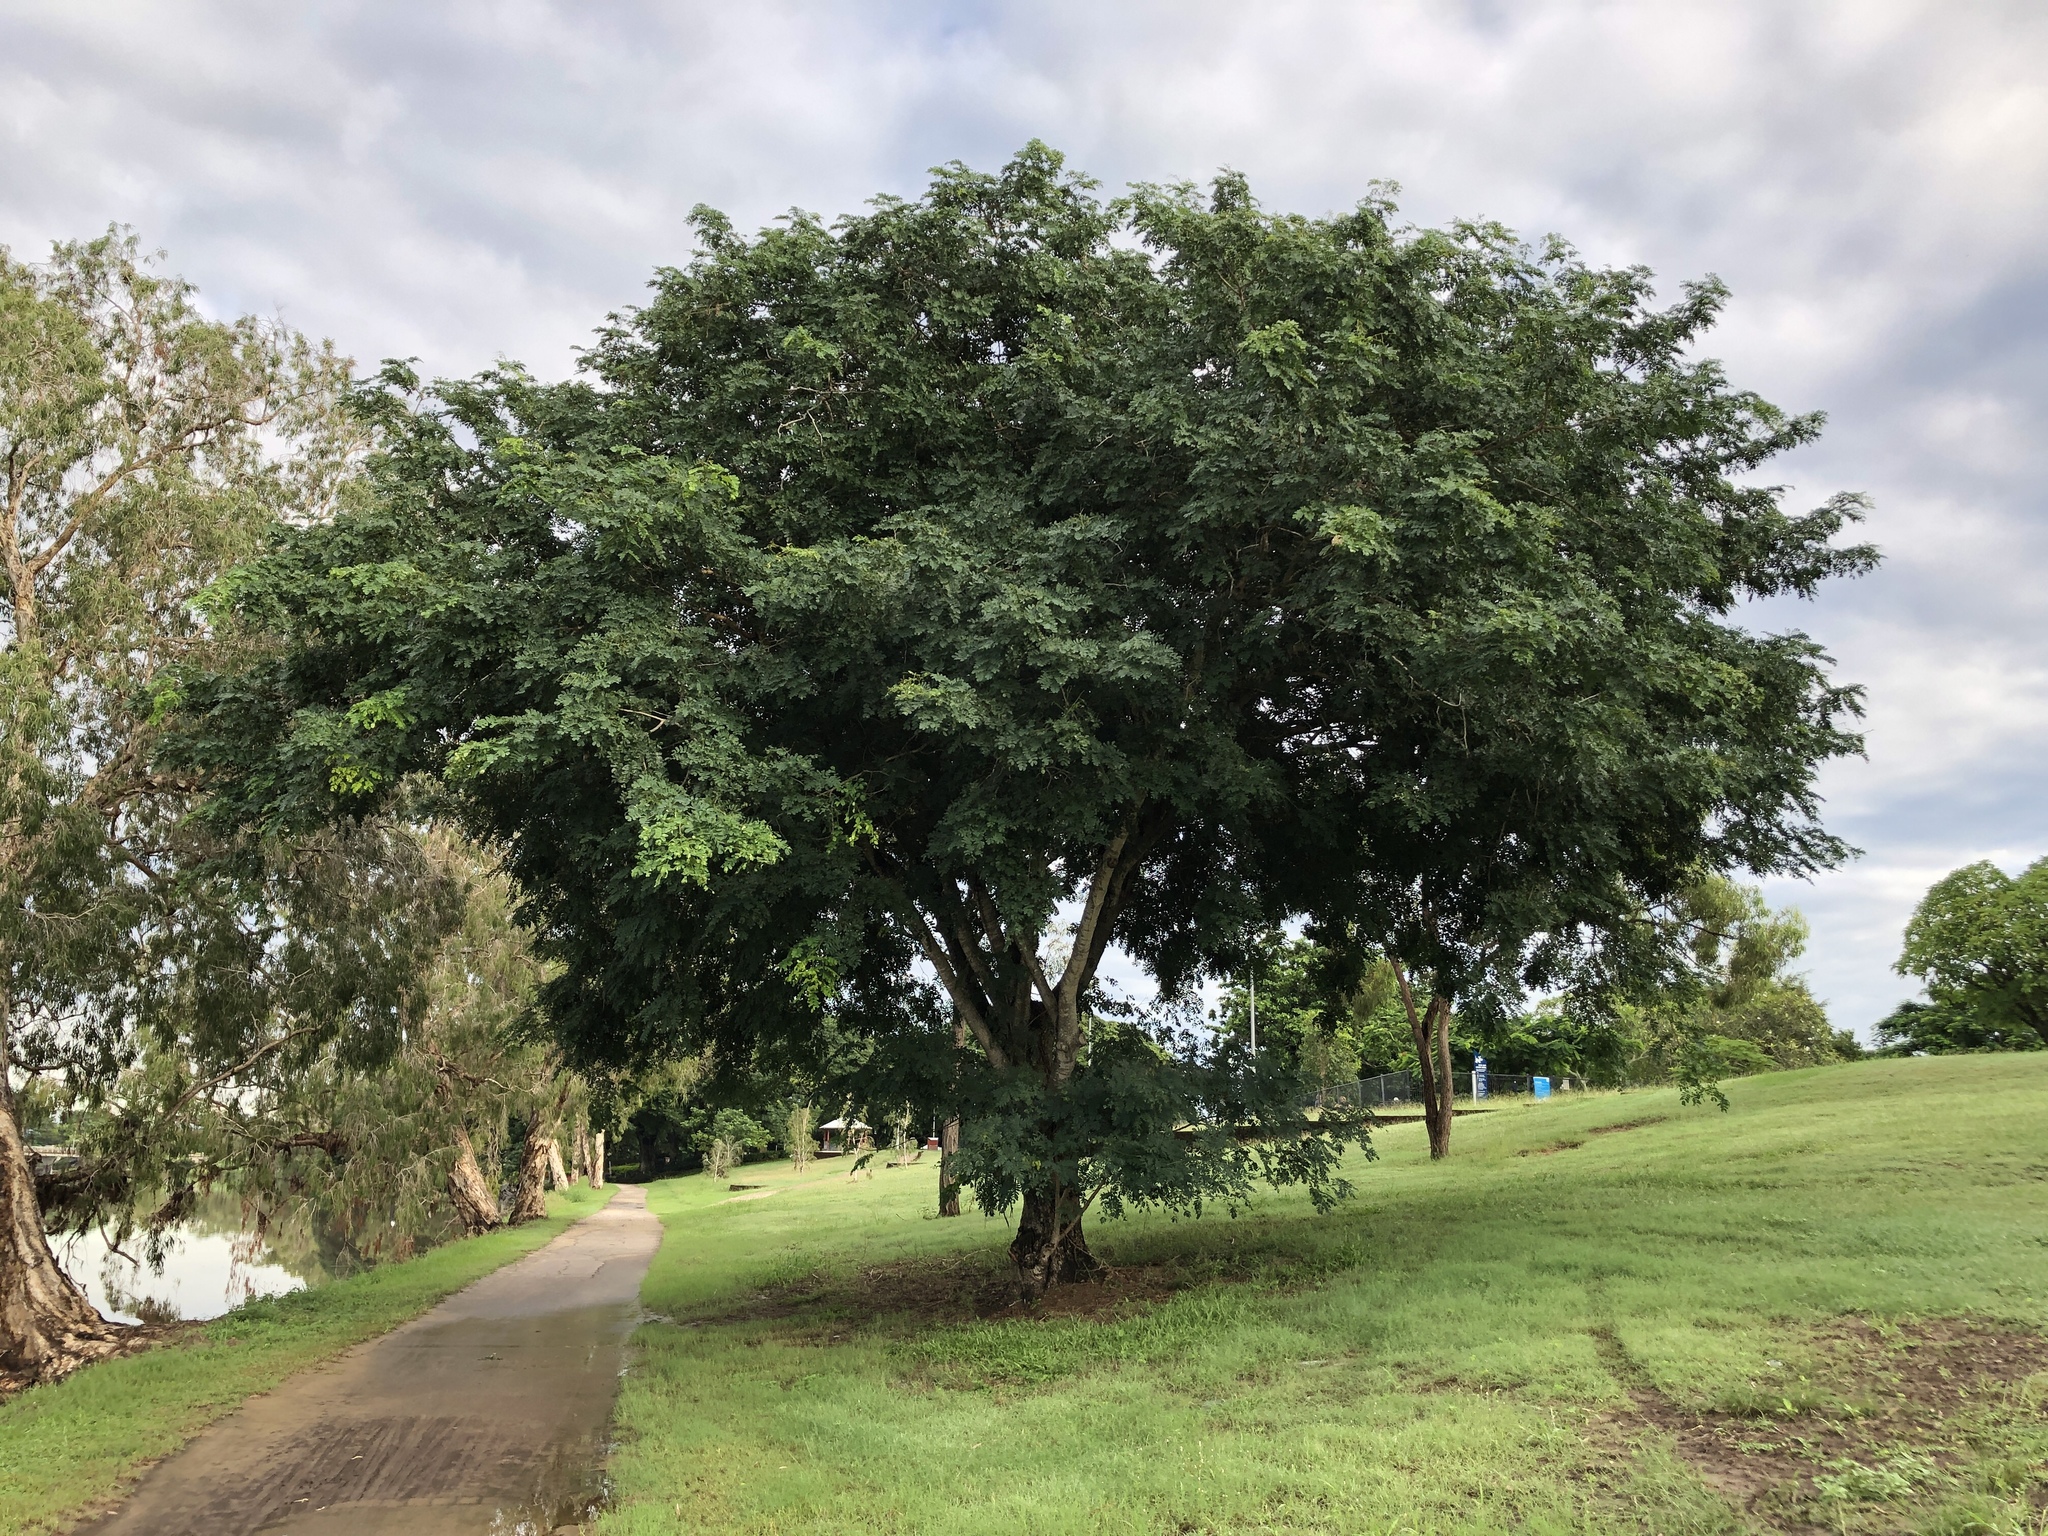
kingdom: Plantae
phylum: Tracheophyta
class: Magnoliopsida
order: Fabales
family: Fabaceae
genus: Albizia
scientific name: Albizia lebbeck
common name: Woman's tongue
